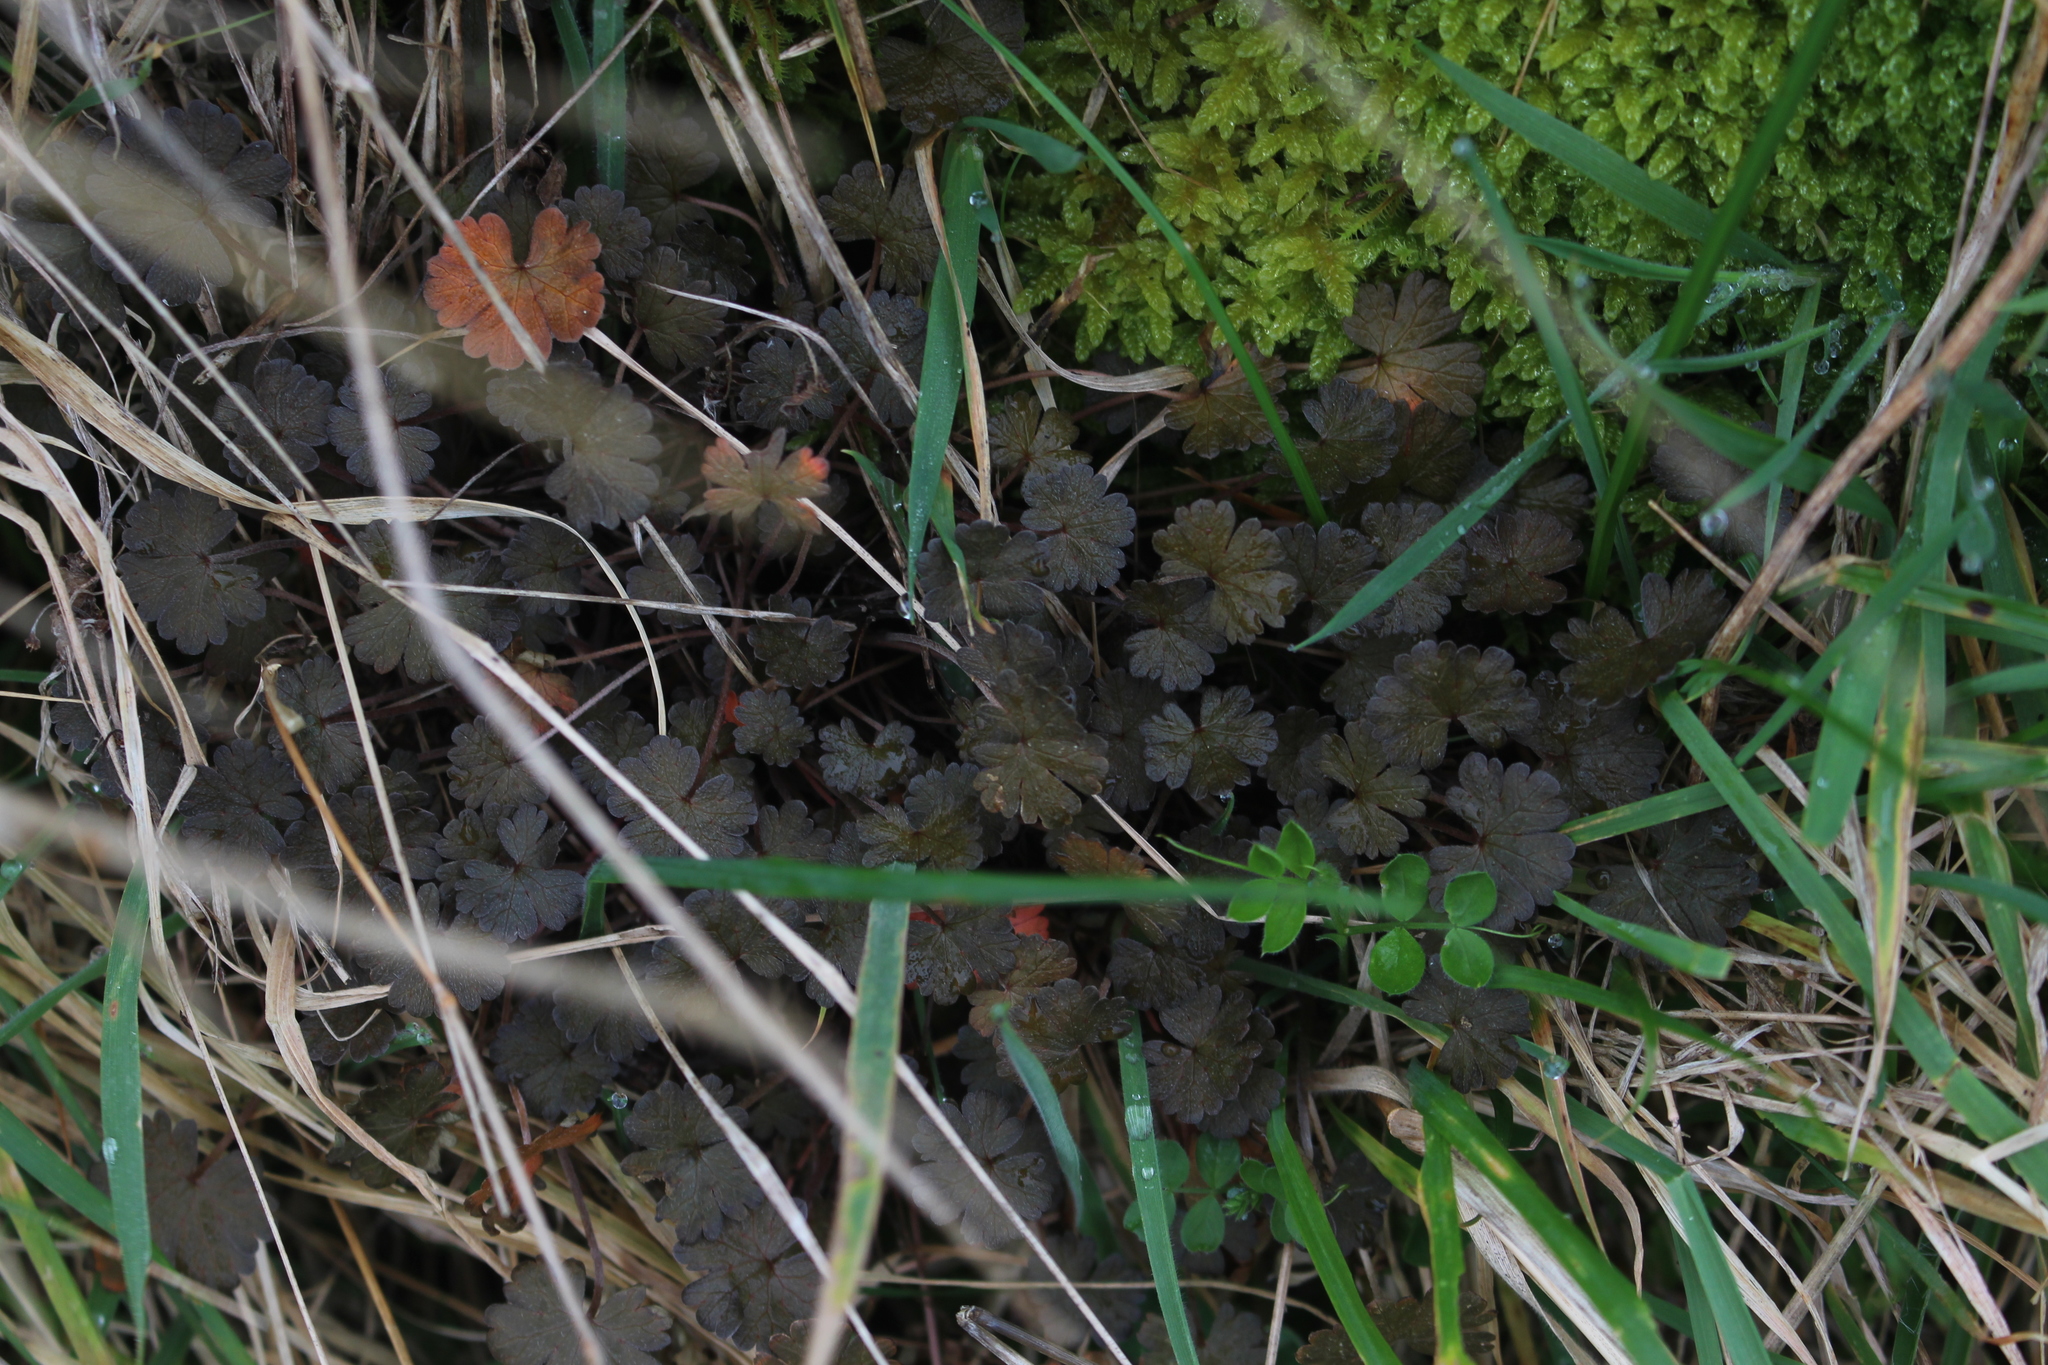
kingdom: Plantae
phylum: Tracheophyta
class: Magnoliopsida
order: Geraniales
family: Geraniaceae
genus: Geranium
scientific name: Geranium brevicaule
